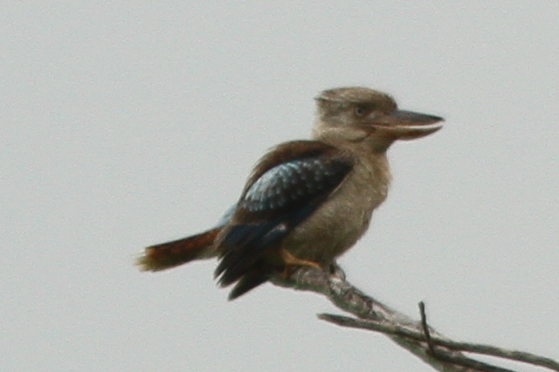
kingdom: Animalia
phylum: Chordata
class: Aves
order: Coraciiformes
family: Alcedinidae
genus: Dacelo
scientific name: Dacelo leachii
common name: Blue-winged kookaburra
